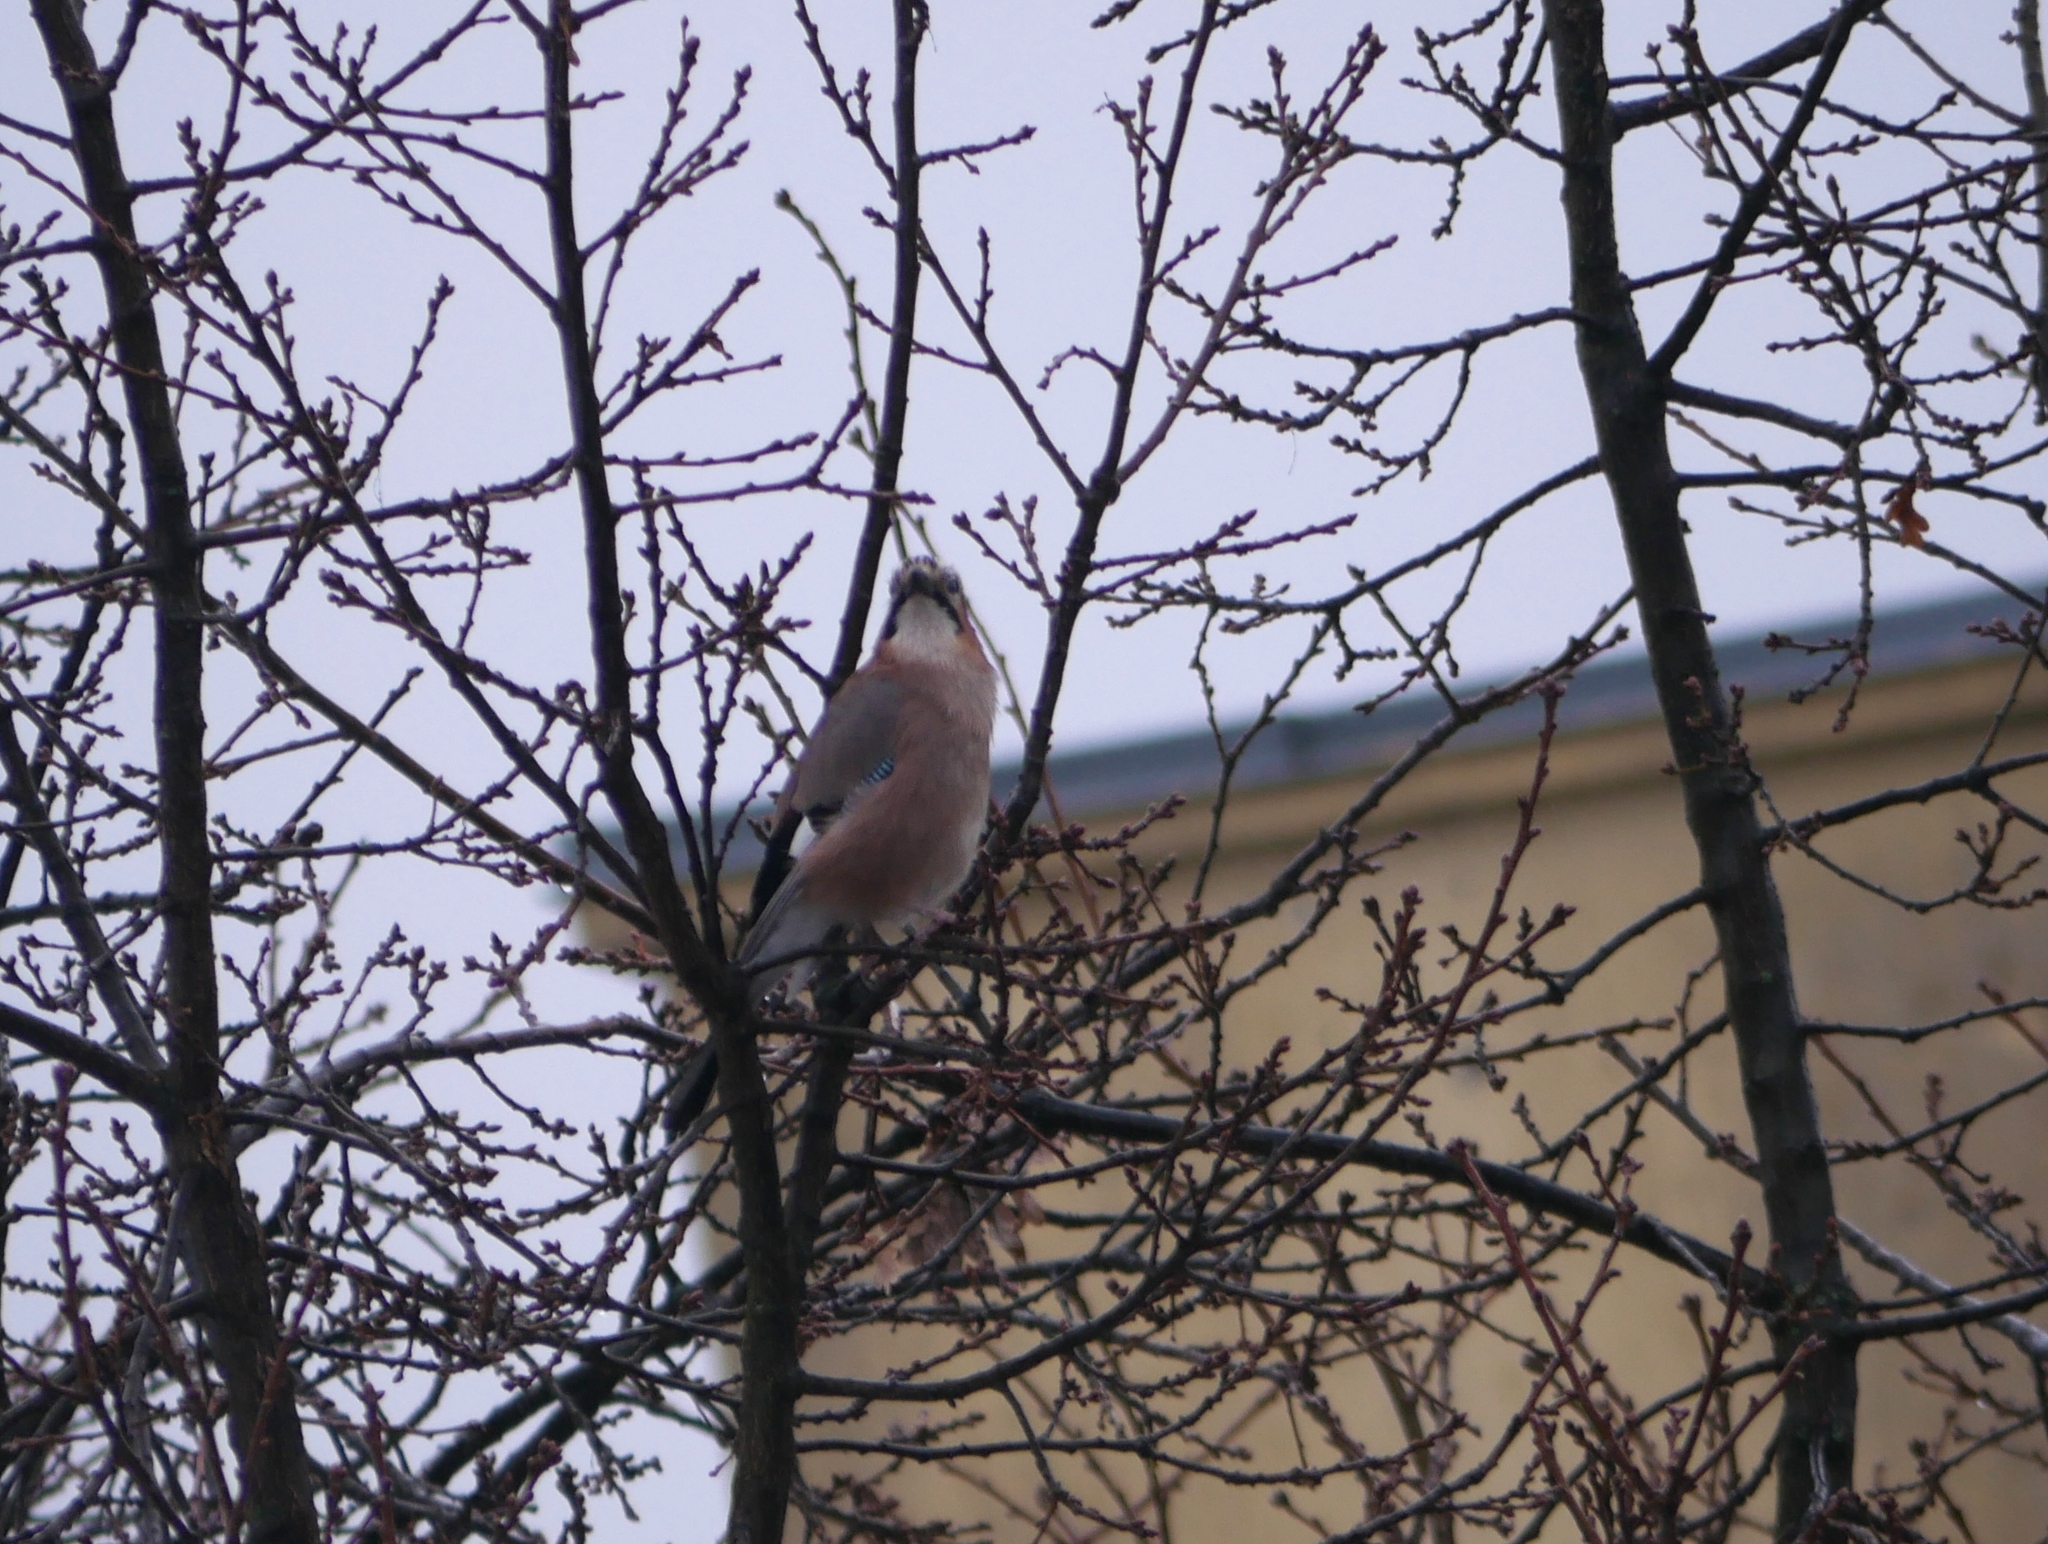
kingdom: Animalia
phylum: Chordata
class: Aves
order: Passeriformes
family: Corvidae
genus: Garrulus
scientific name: Garrulus glandarius
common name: Eurasian jay
